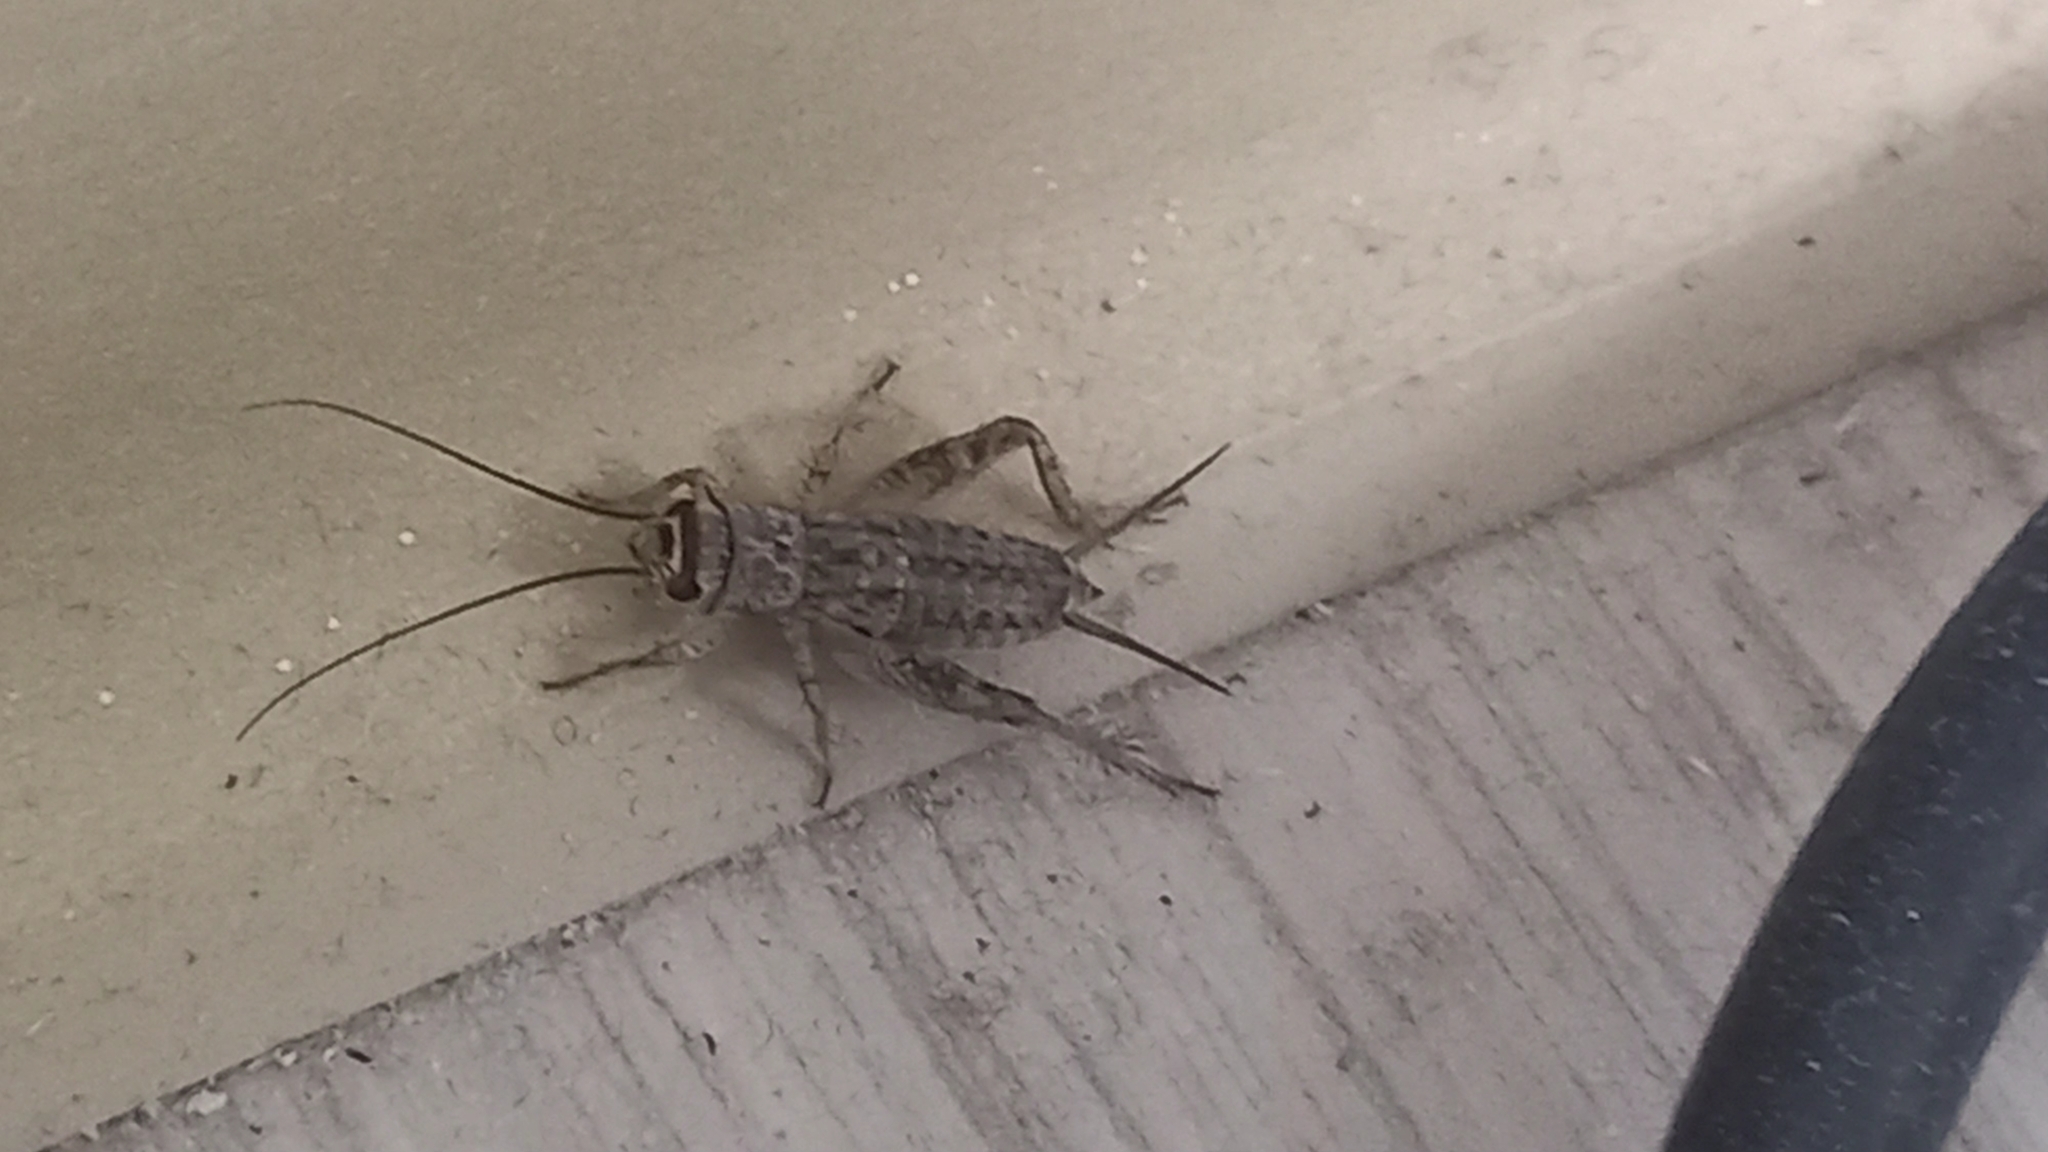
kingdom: Animalia
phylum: Arthropoda
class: Insecta
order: Orthoptera
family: Gryllidae
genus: Eumodicogryllus
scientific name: Eumodicogryllus bordigalensis
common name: Bordeaux cricket
